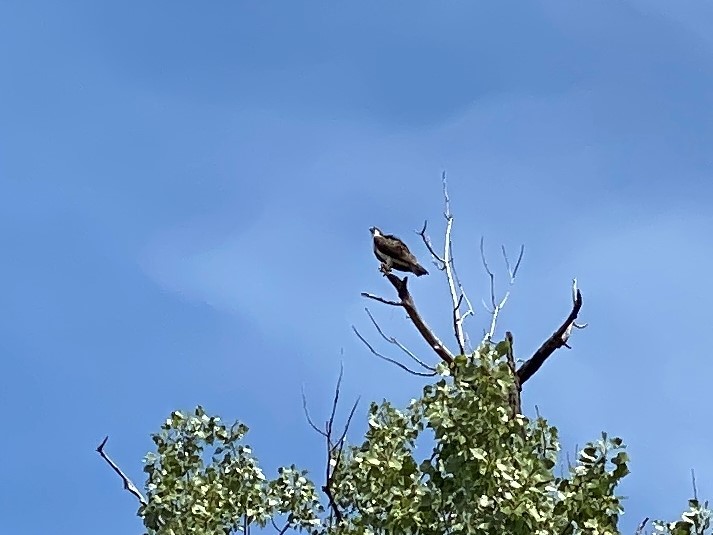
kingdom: Animalia
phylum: Chordata
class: Aves
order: Accipitriformes
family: Pandionidae
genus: Pandion
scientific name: Pandion haliaetus
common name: Osprey
